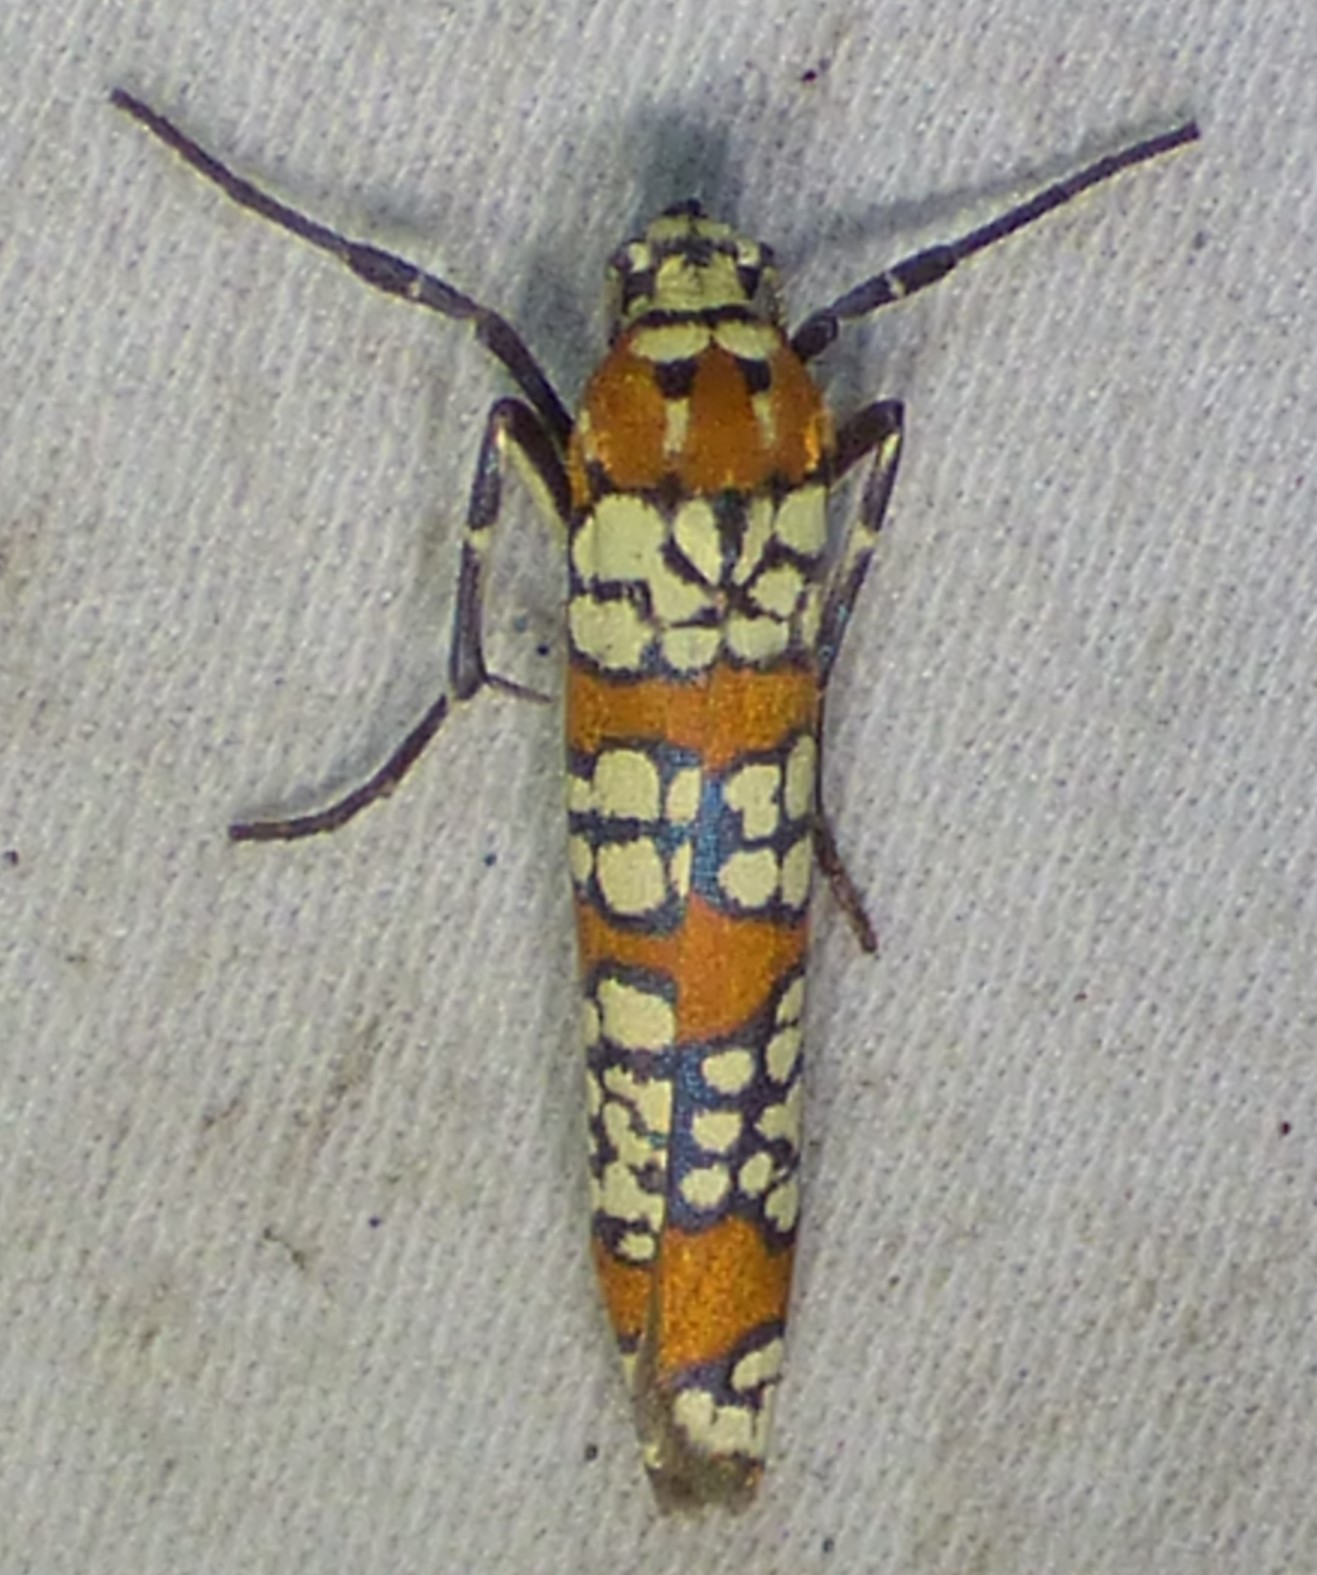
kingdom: Animalia
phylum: Arthropoda
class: Insecta
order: Lepidoptera
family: Attevidae
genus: Atteva
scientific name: Atteva punctella
